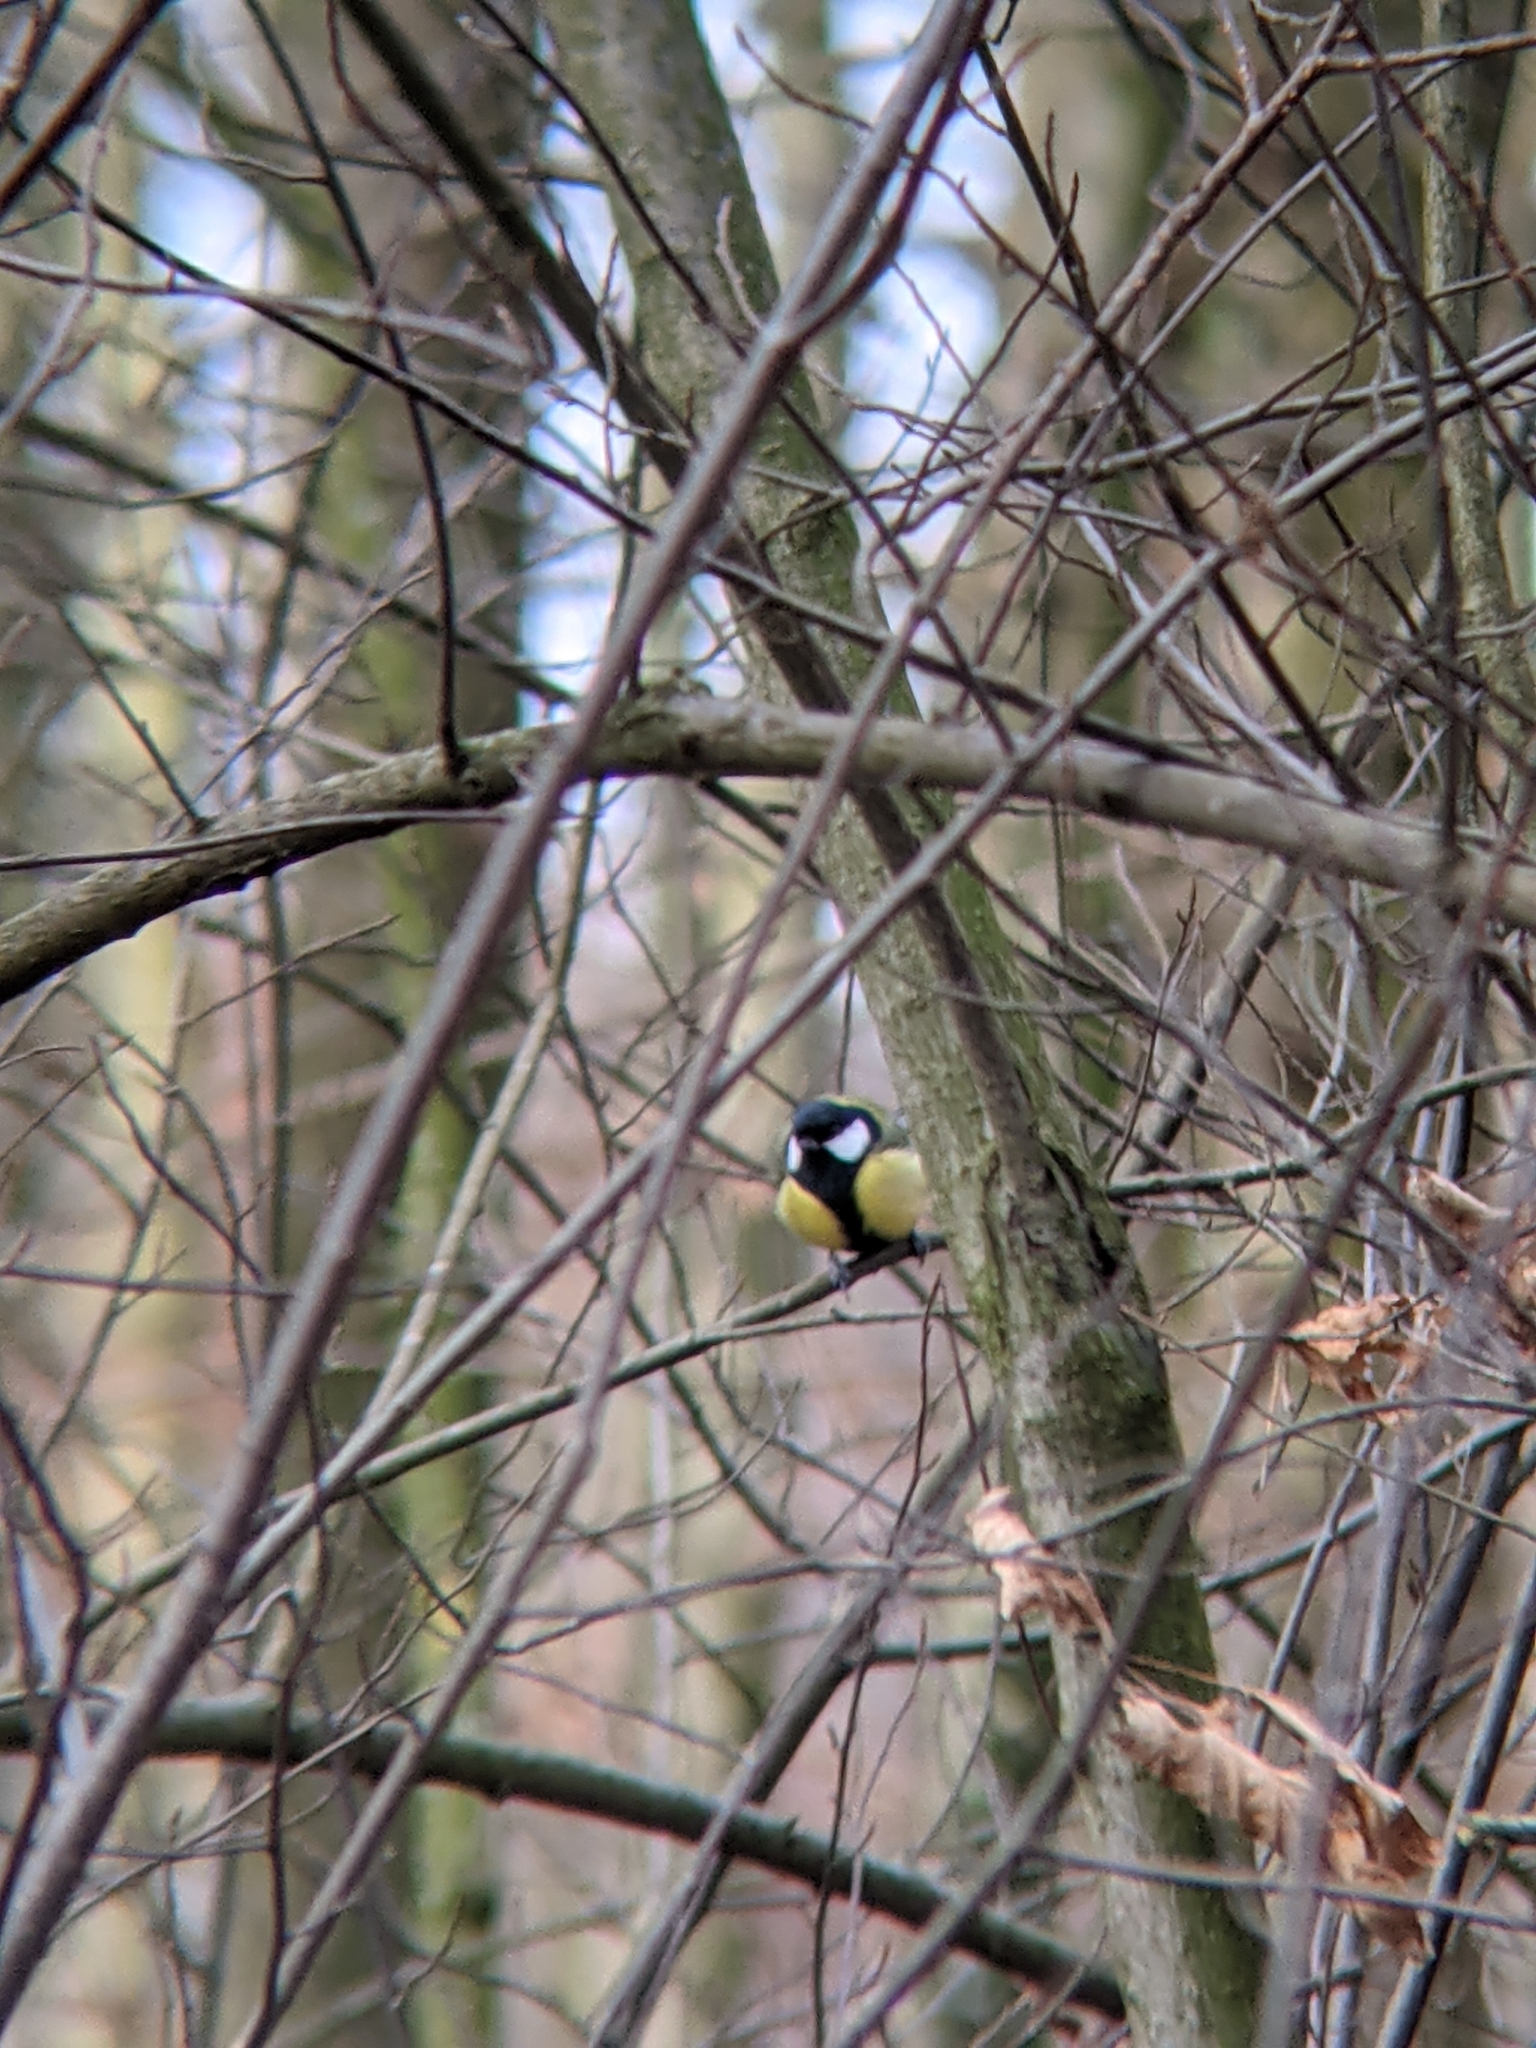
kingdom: Animalia
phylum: Chordata
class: Aves
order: Passeriformes
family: Paridae
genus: Parus
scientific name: Parus major
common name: Great tit
